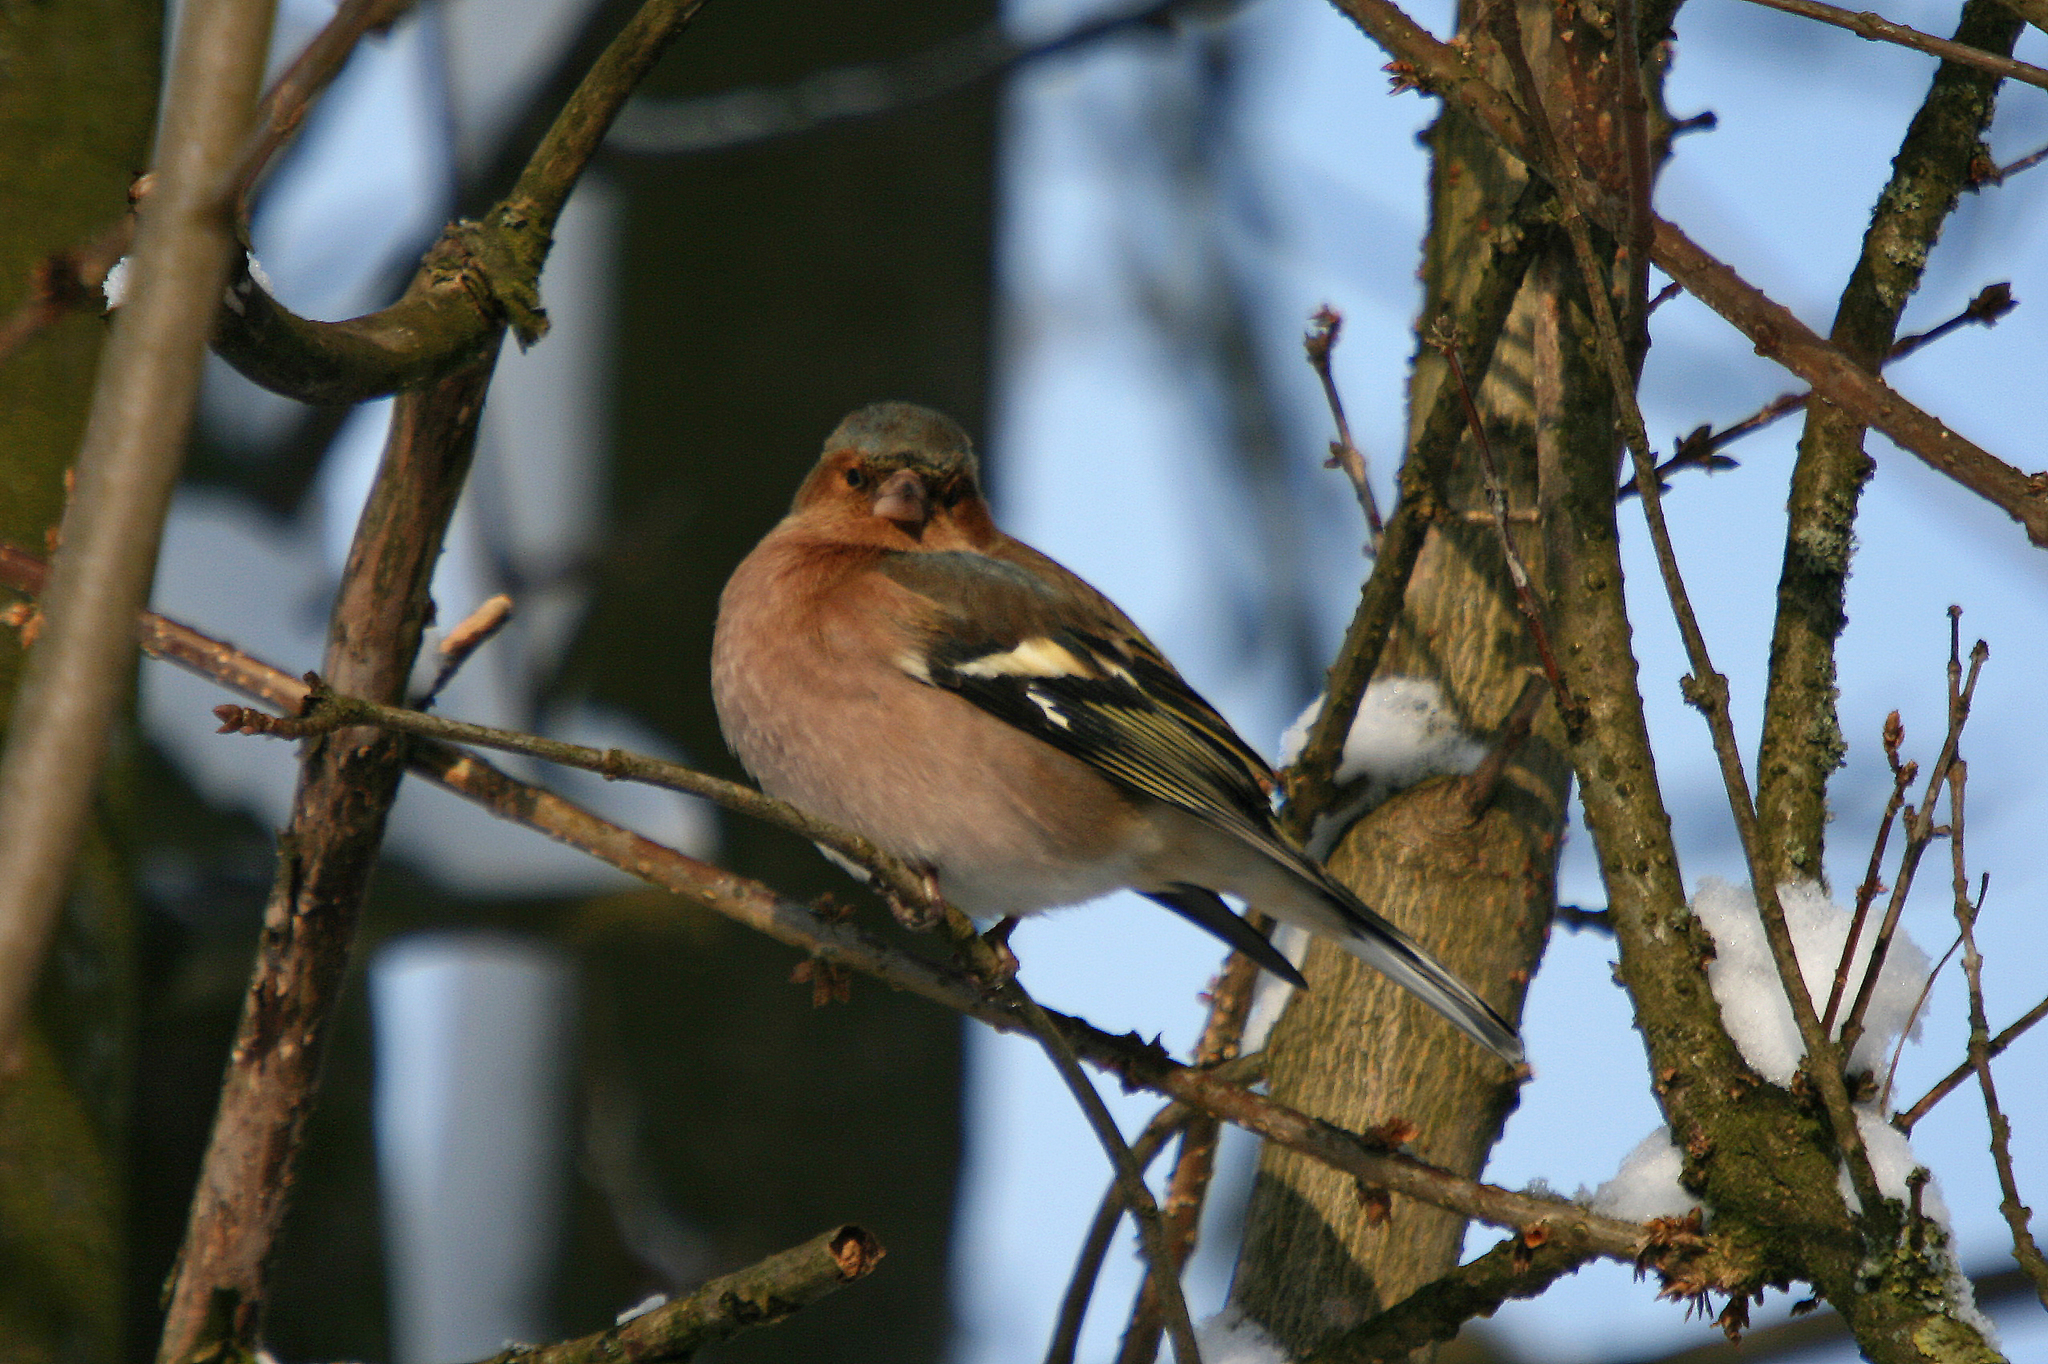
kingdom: Animalia
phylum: Chordata
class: Aves
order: Passeriformes
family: Fringillidae
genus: Fringilla
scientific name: Fringilla coelebs
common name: Common chaffinch
